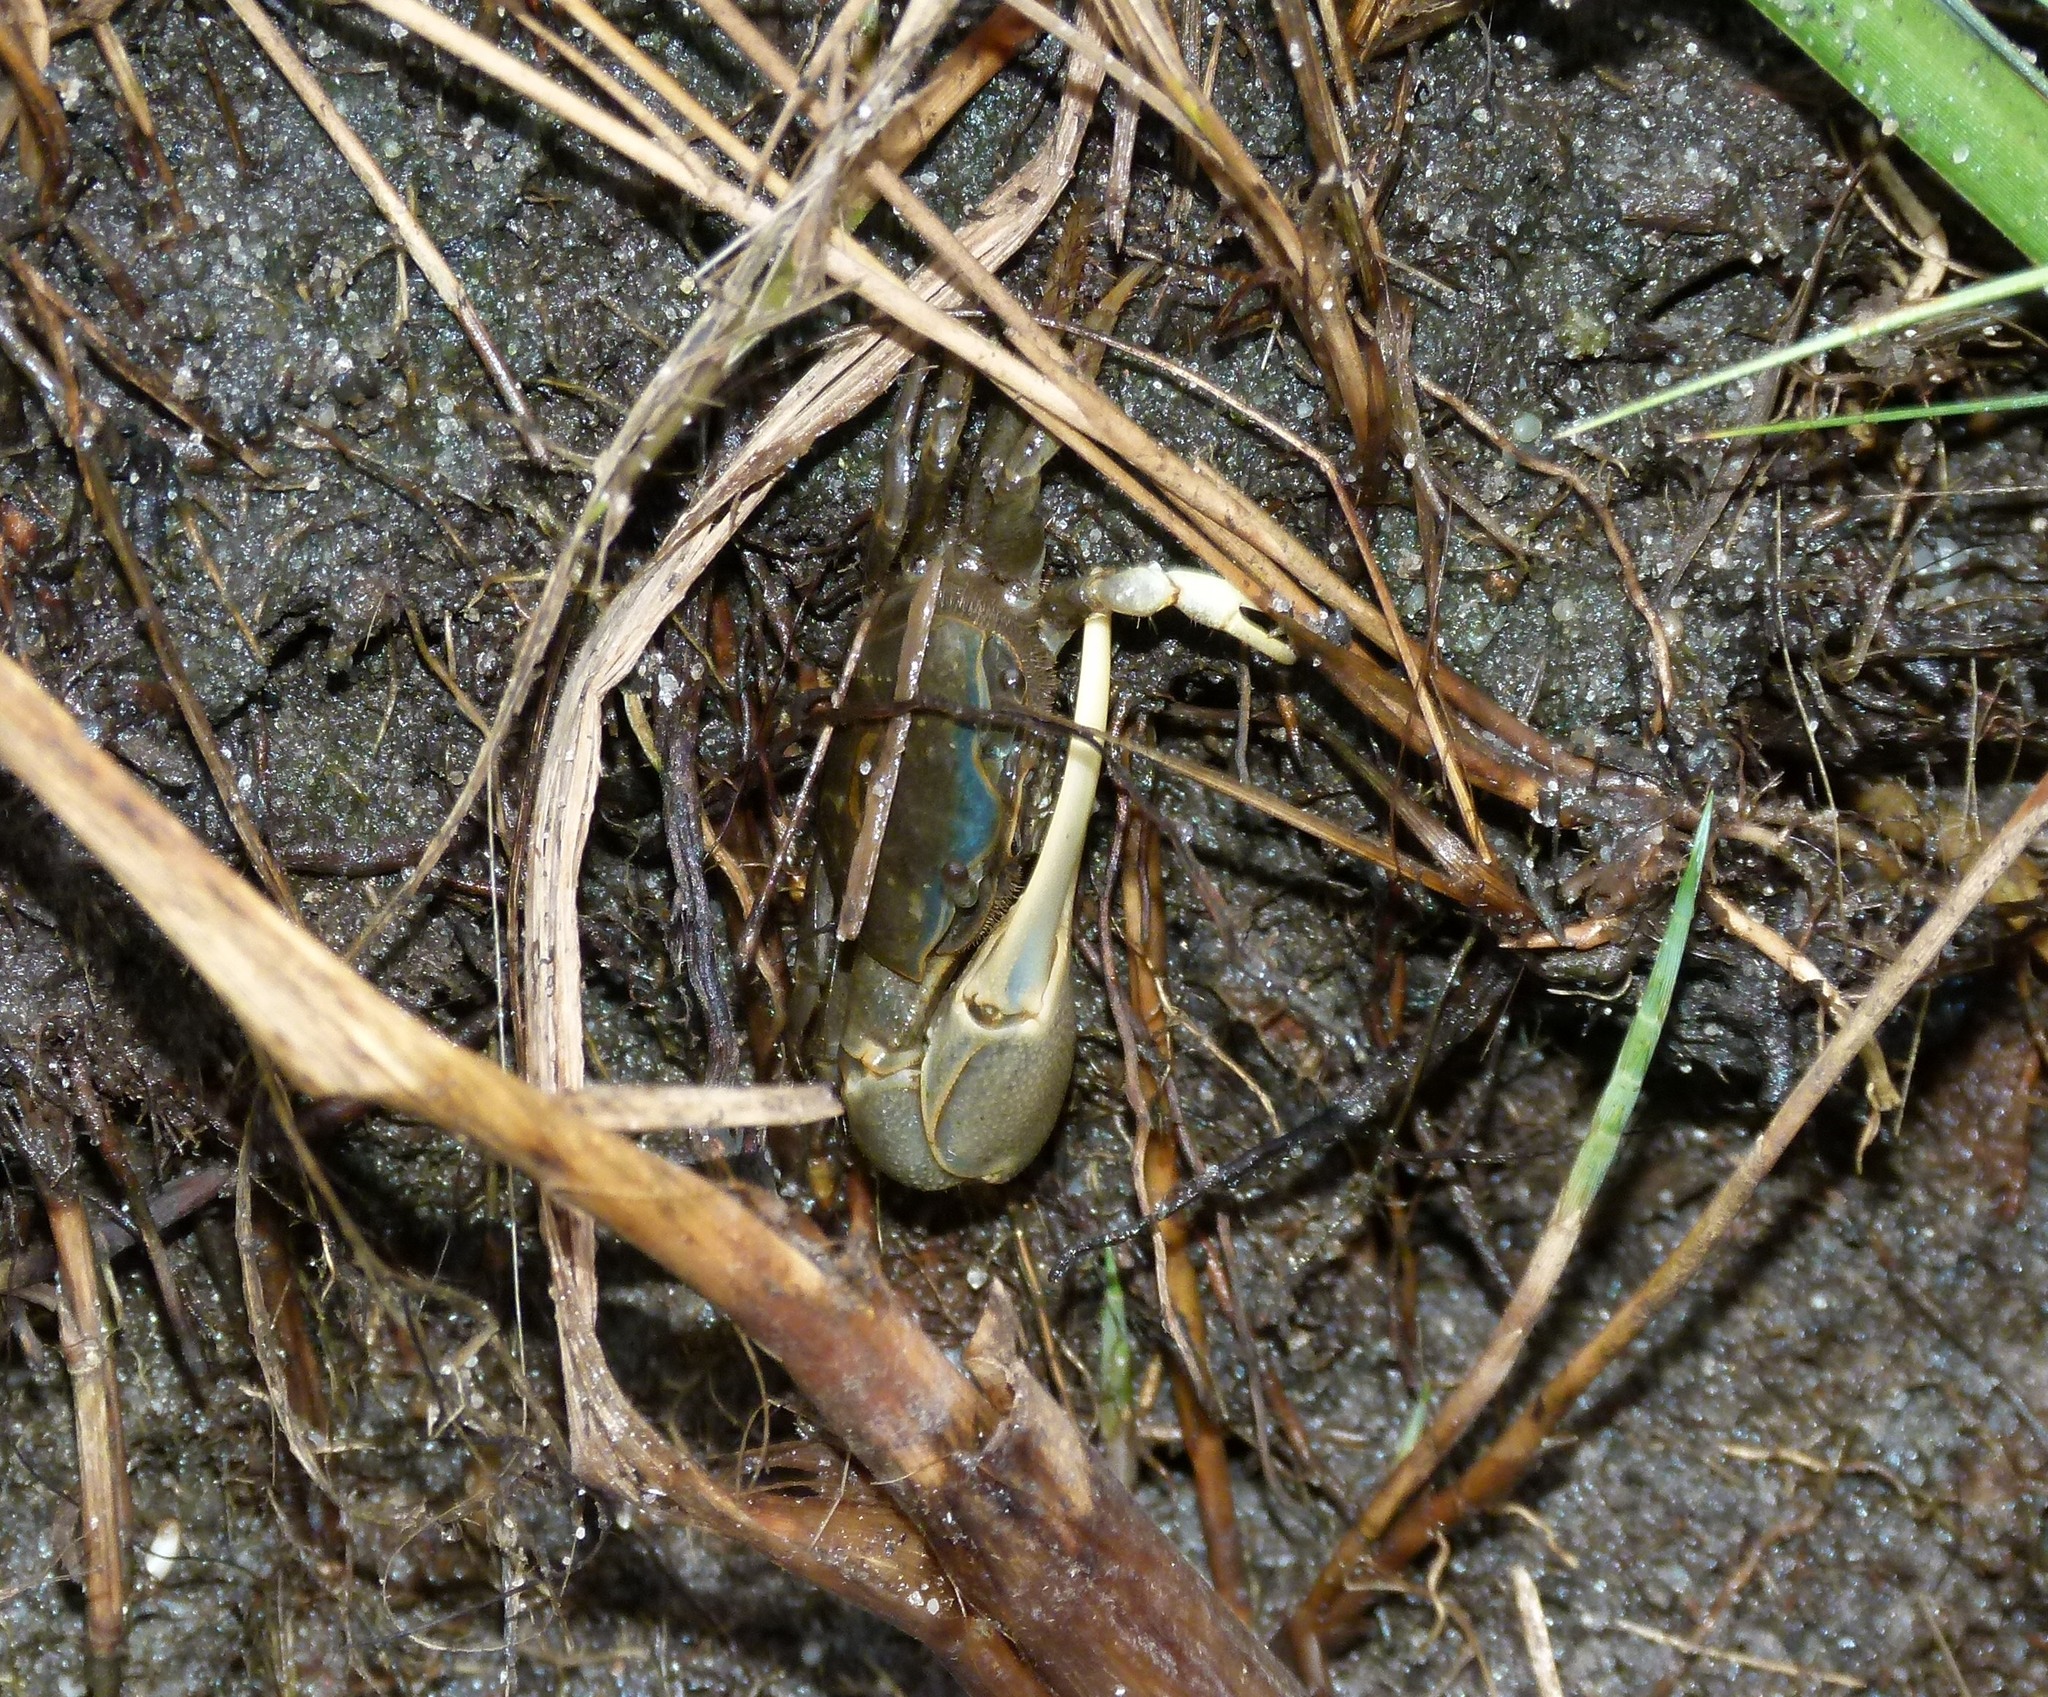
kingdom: Animalia
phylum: Arthropoda
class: Malacostraca
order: Decapoda
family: Ocypodidae
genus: Minuca
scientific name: Minuca pugnax
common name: Mud fiddler crab
